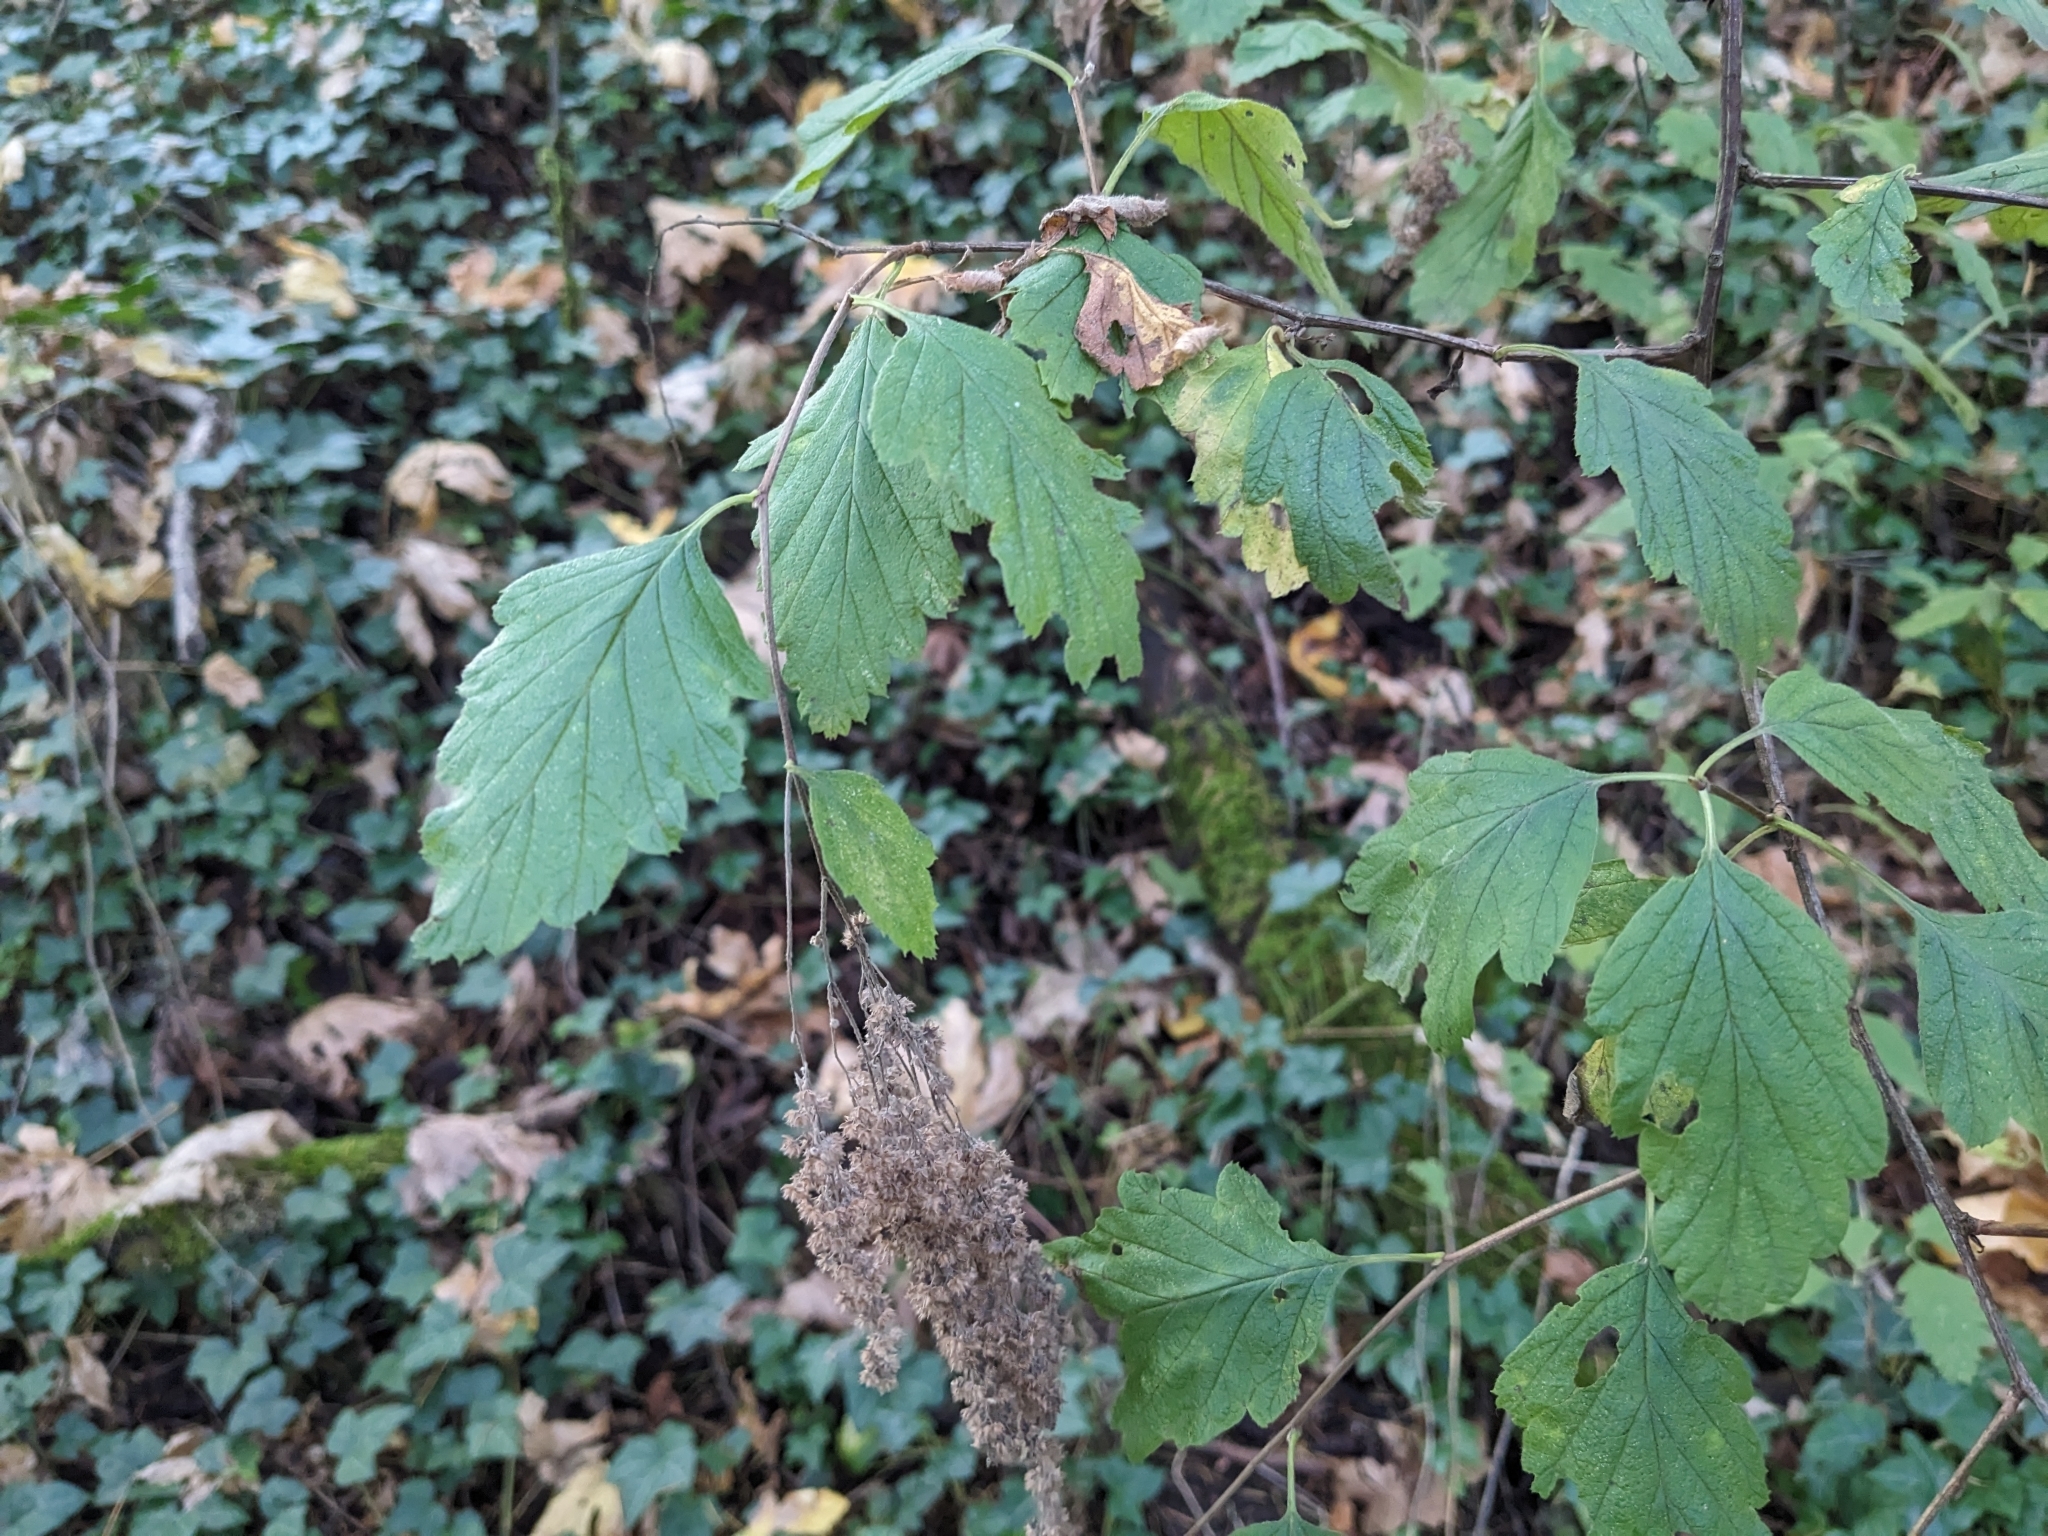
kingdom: Plantae
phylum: Tracheophyta
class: Magnoliopsida
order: Rosales
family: Rosaceae
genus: Holodiscus
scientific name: Holodiscus discolor
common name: Oceanspray
